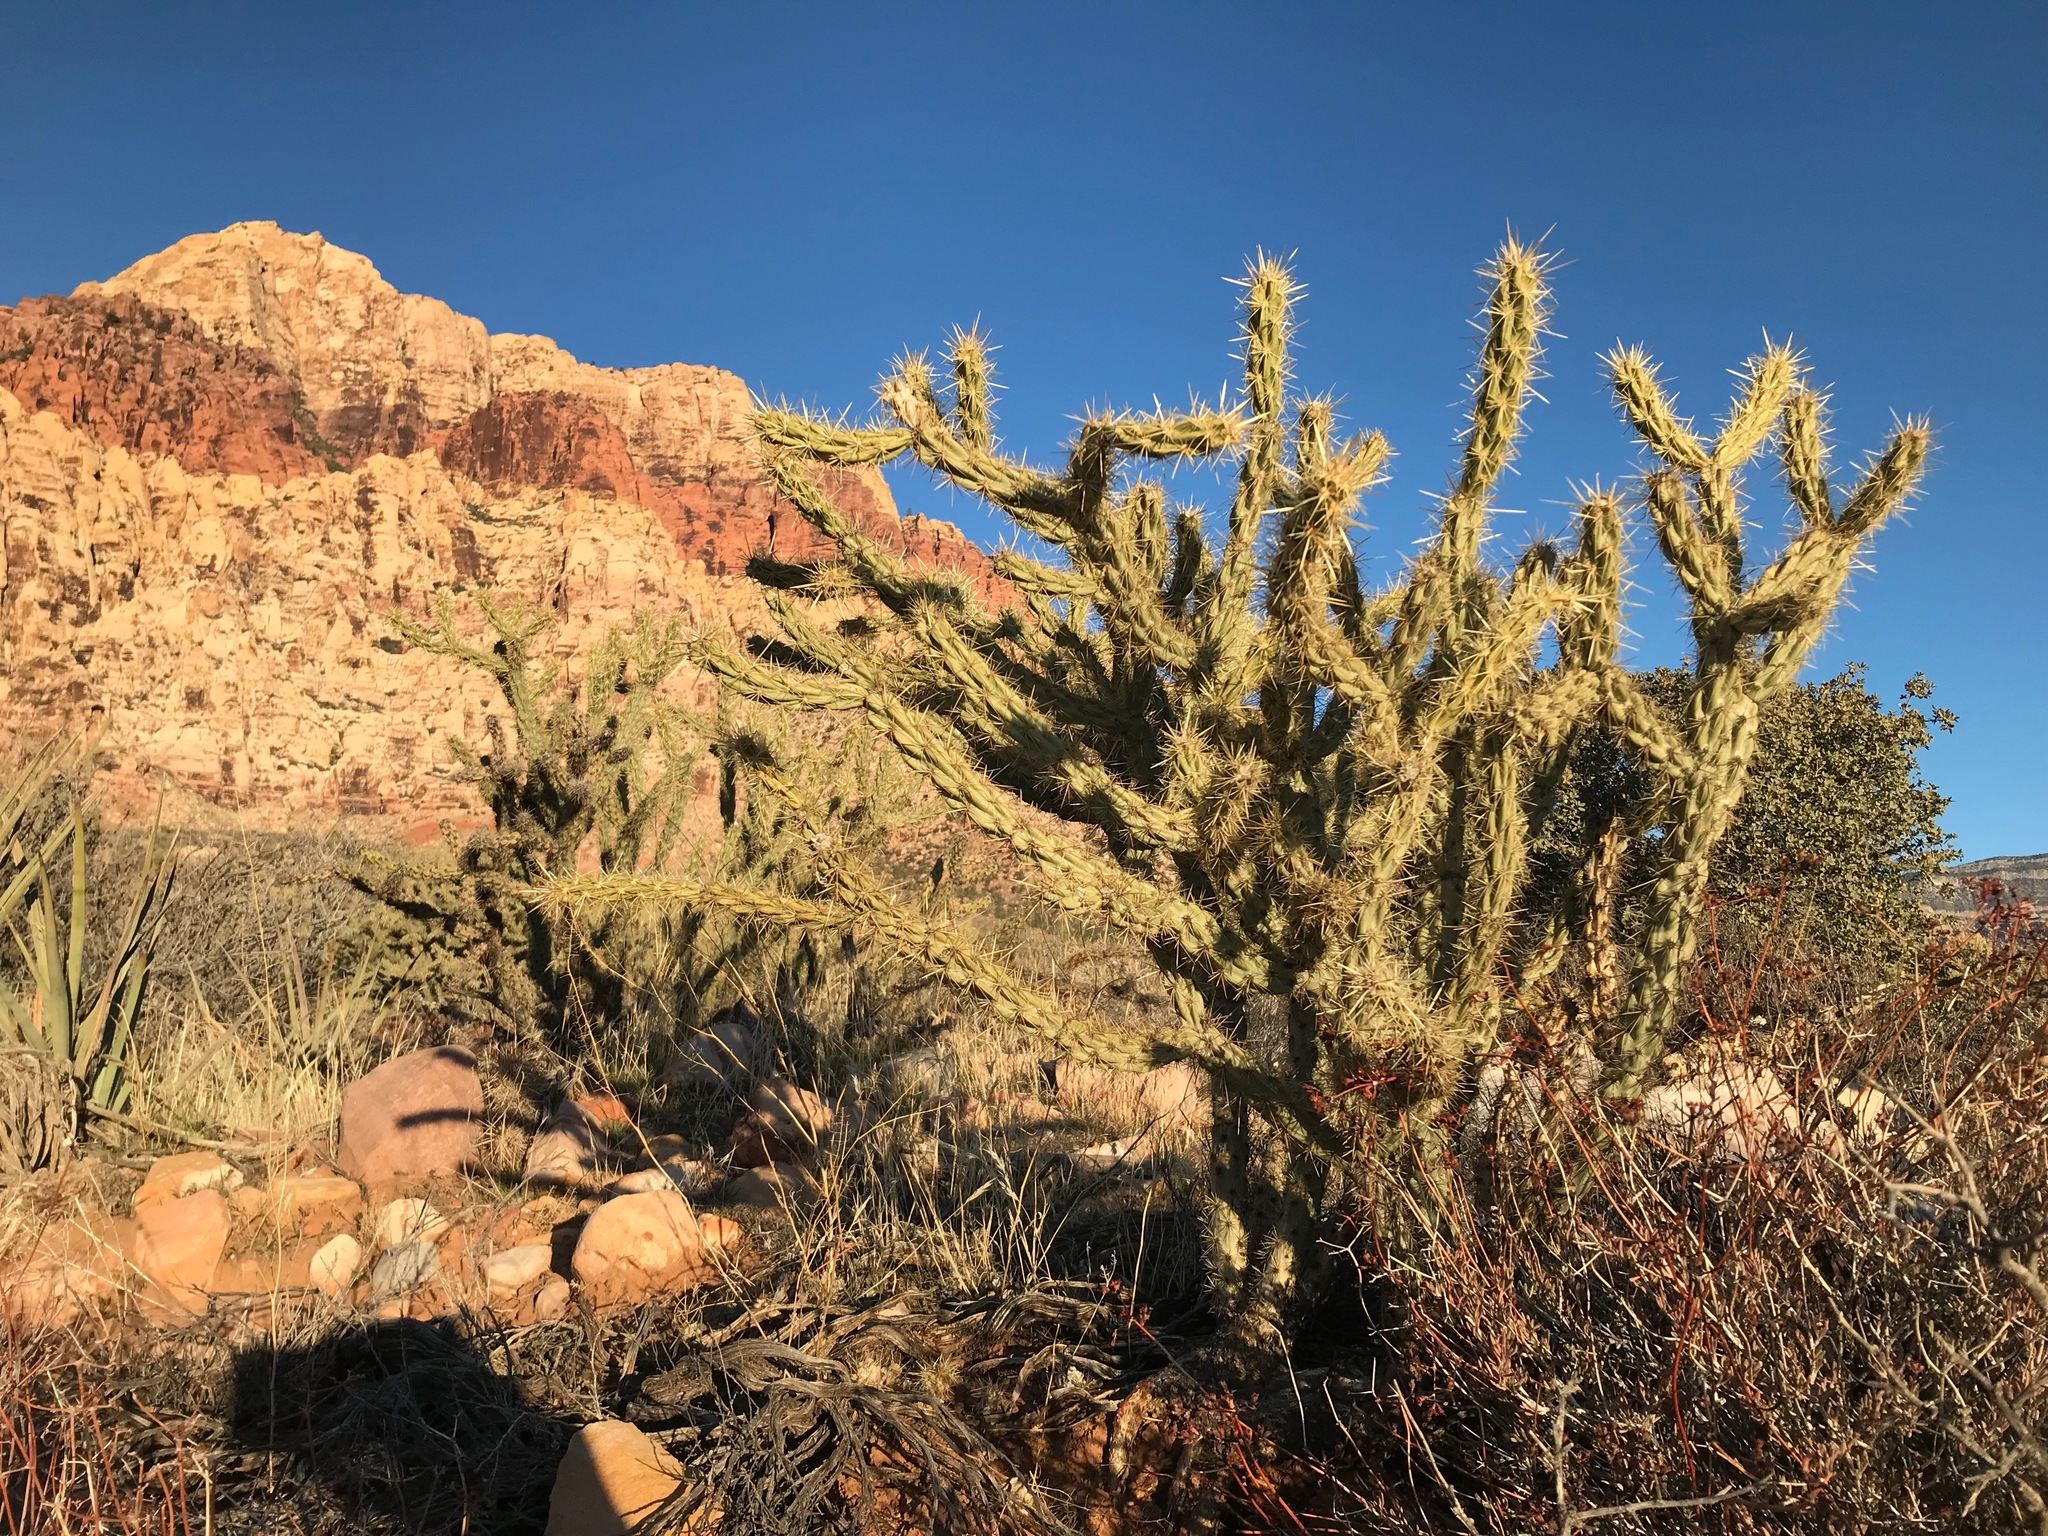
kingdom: Plantae
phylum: Tracheophyta
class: Magnoliopsida
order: Caryophyllales
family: Cactaceae
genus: Cylindropuntia
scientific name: Cylindropuntia acanthocarpa
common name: Buckhorn cholla
